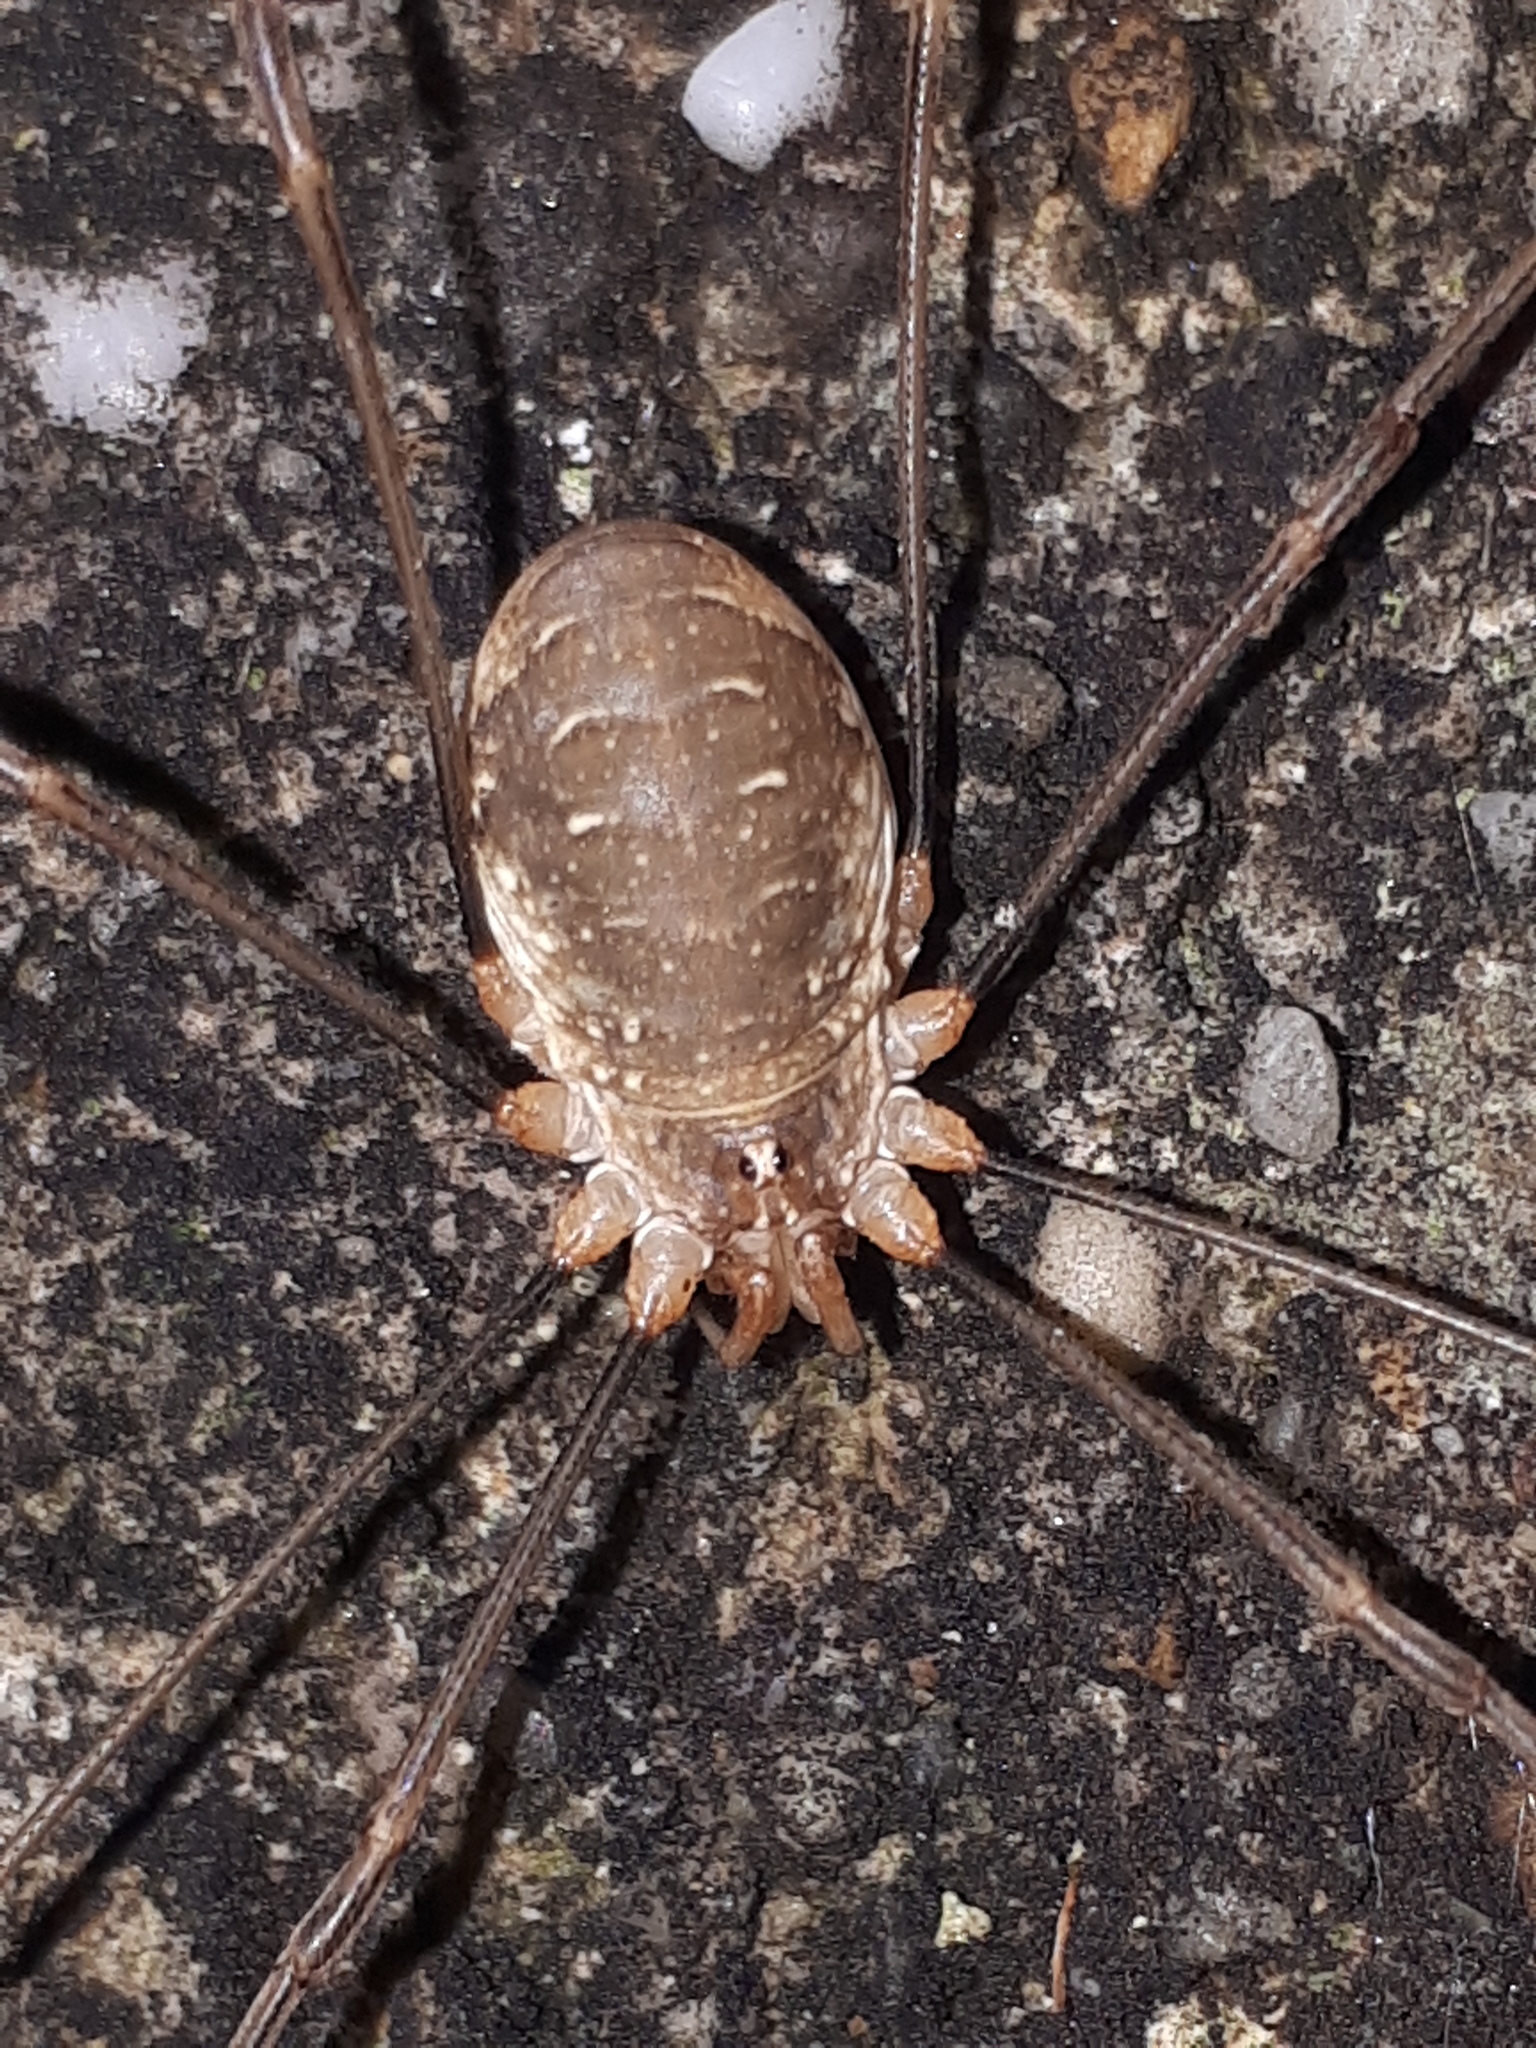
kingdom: Animalia
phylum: Arthropoda
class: Arachnida
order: Opiliones
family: Phalangiidae
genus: Opilio
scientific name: Opilio canestrinii
